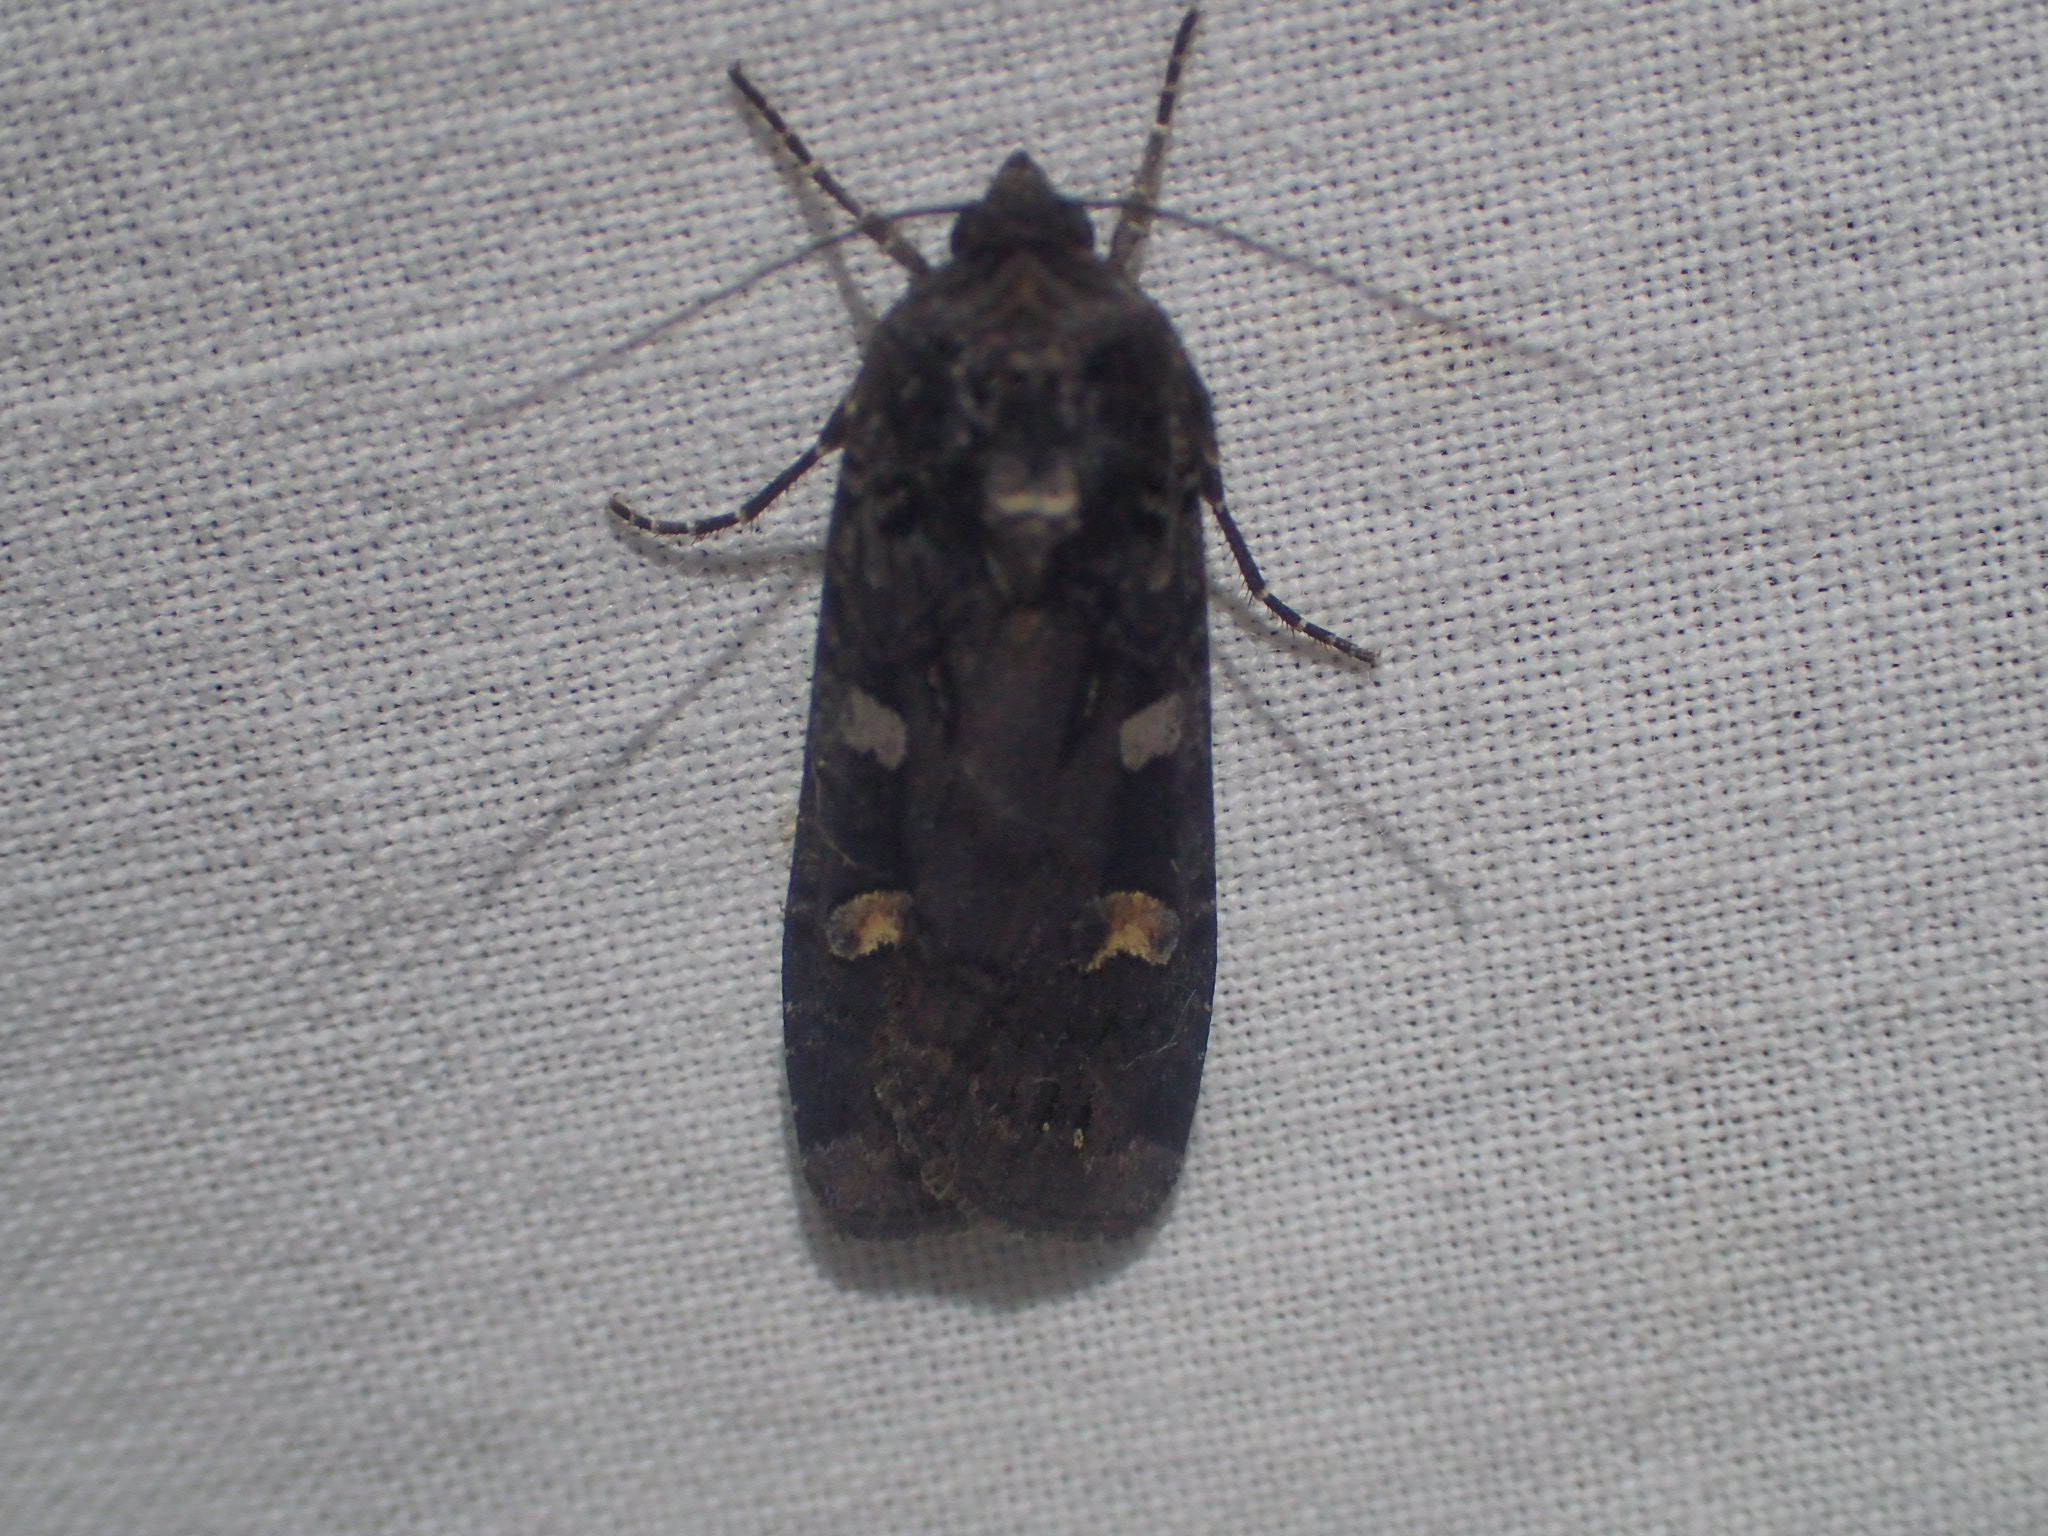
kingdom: Animalia
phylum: Arthropoda
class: Insecta
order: Lepidoptera
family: Noctuidae
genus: Actebia
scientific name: Actebia fennica
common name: Eversmann's rustic
